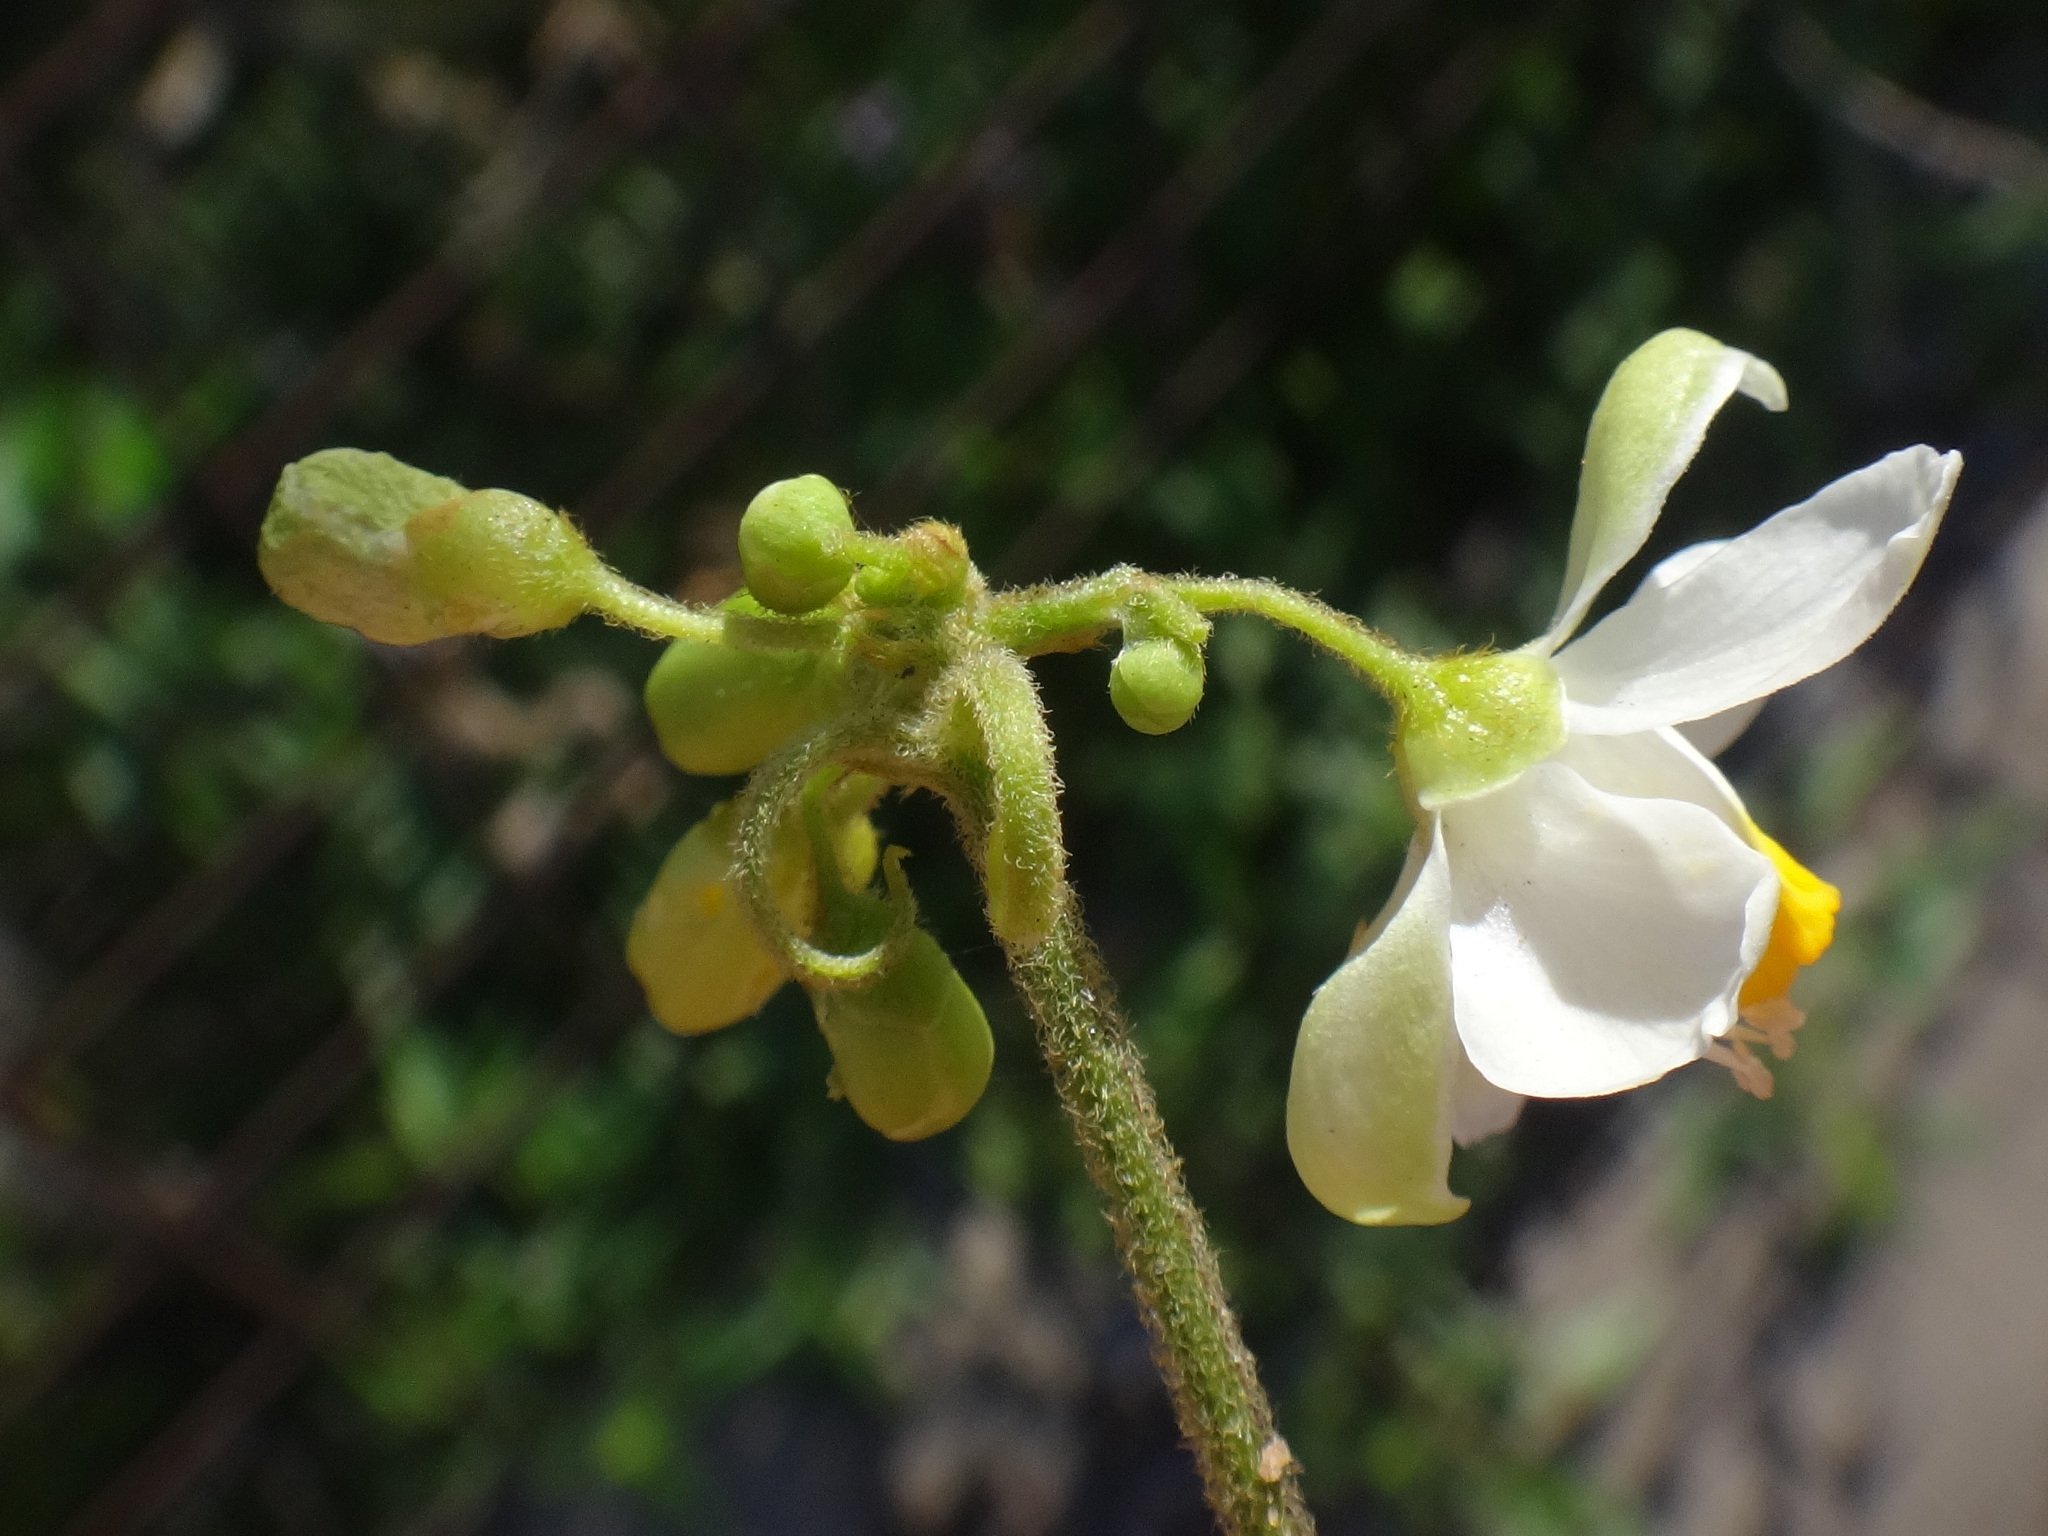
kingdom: Plantae
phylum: Tracheophyta
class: Magnoliopsida
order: Sapindales
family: Sapindaceae
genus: Cardiospermum
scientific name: Cardiospermum grandiflorum
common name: Balloon vine
